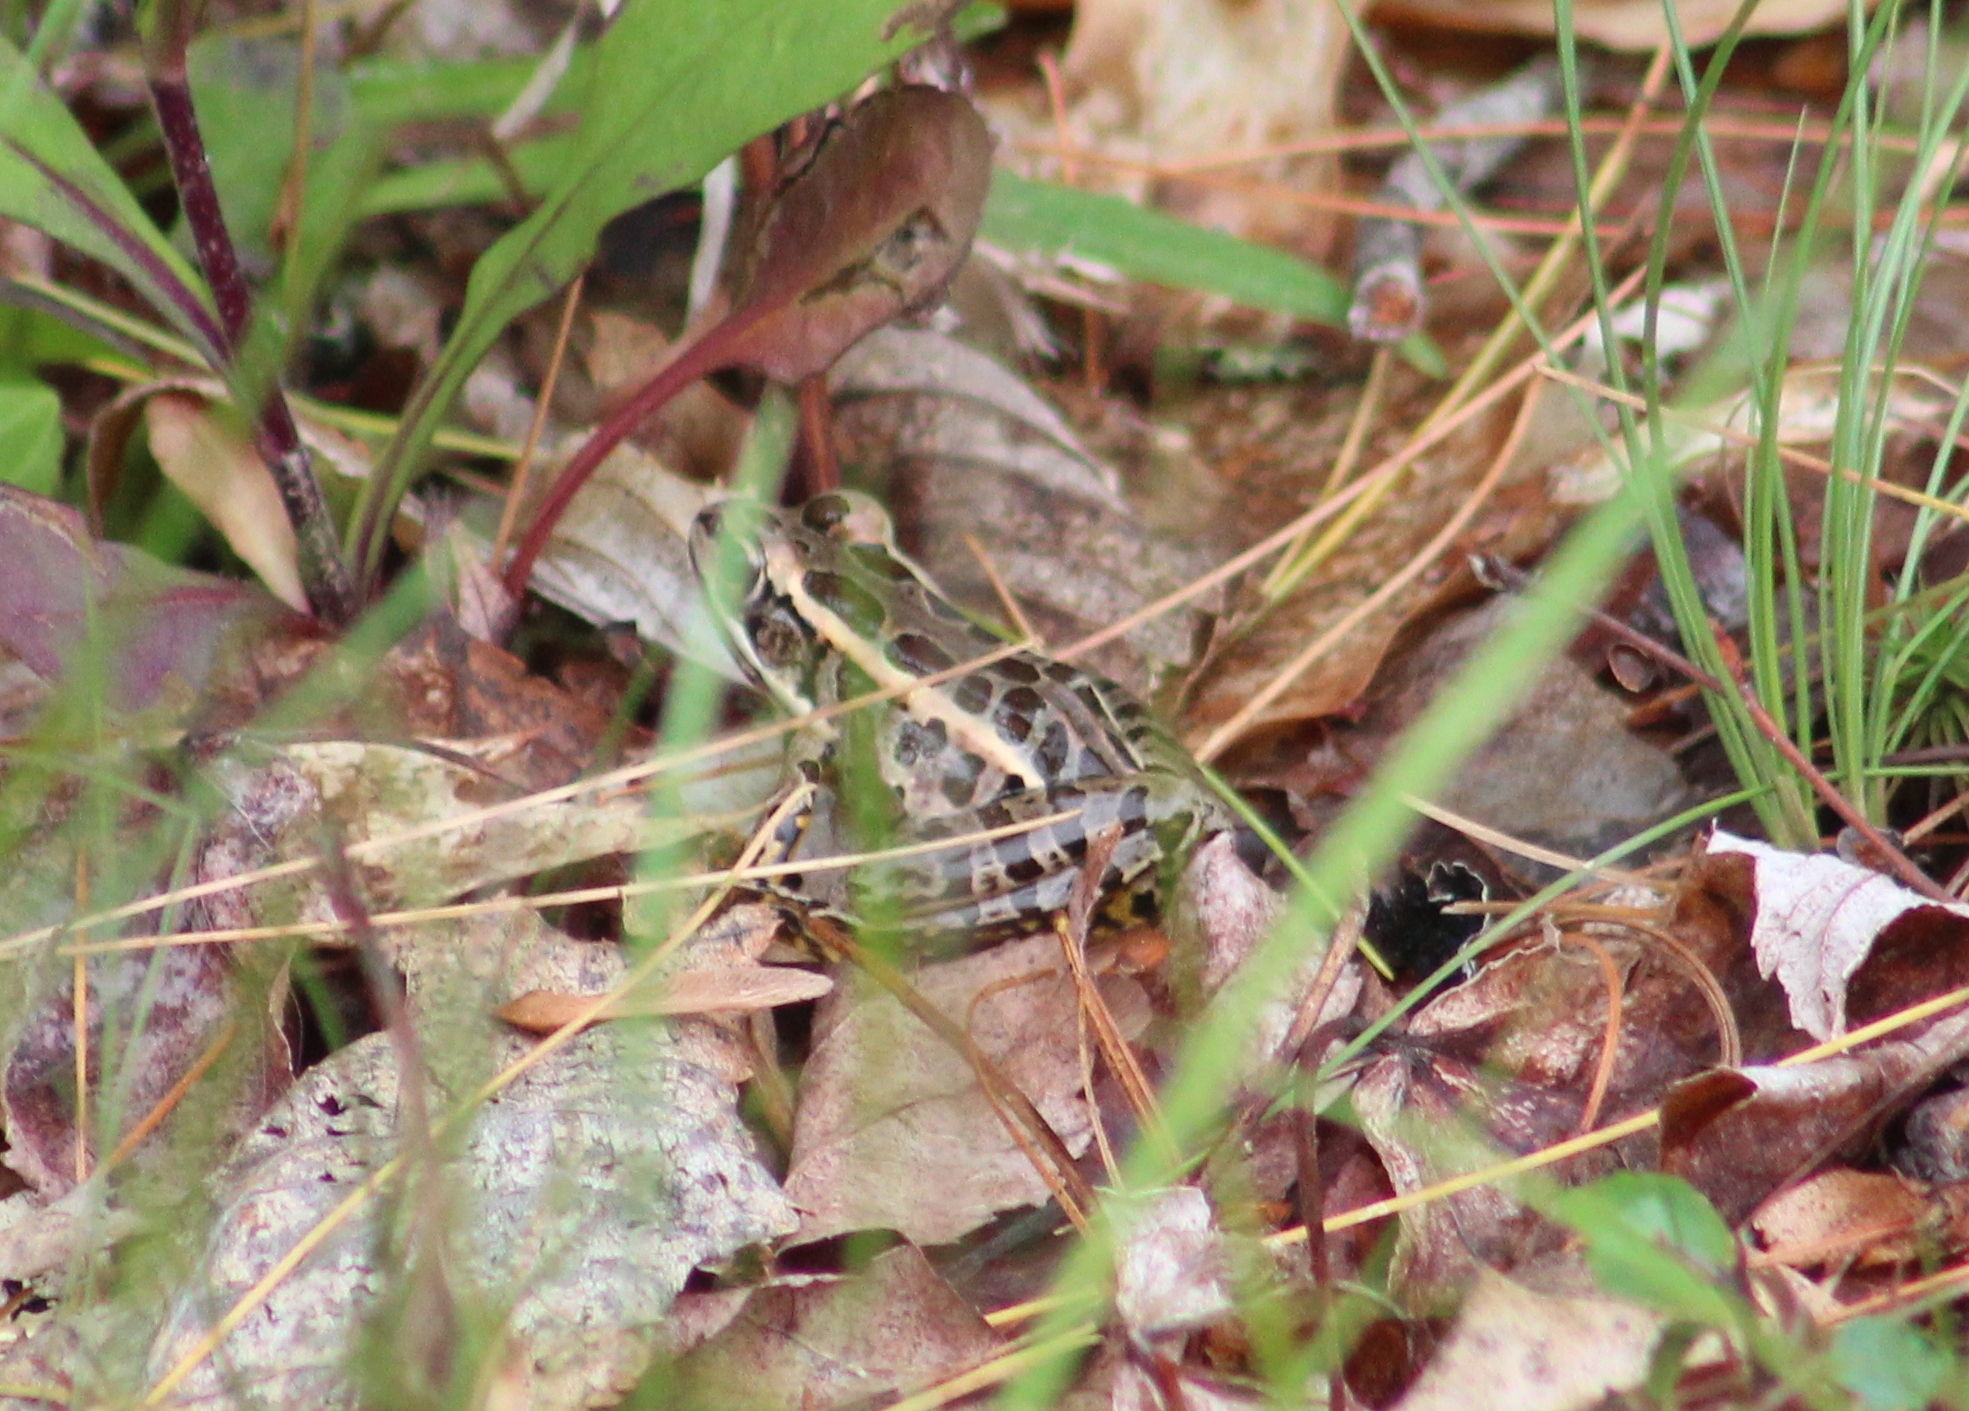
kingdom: Animalia
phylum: Chordata
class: Amphibia
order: Anura
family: Ranidae
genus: Lithobates
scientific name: Lithobates palustris
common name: Pickerel frog
